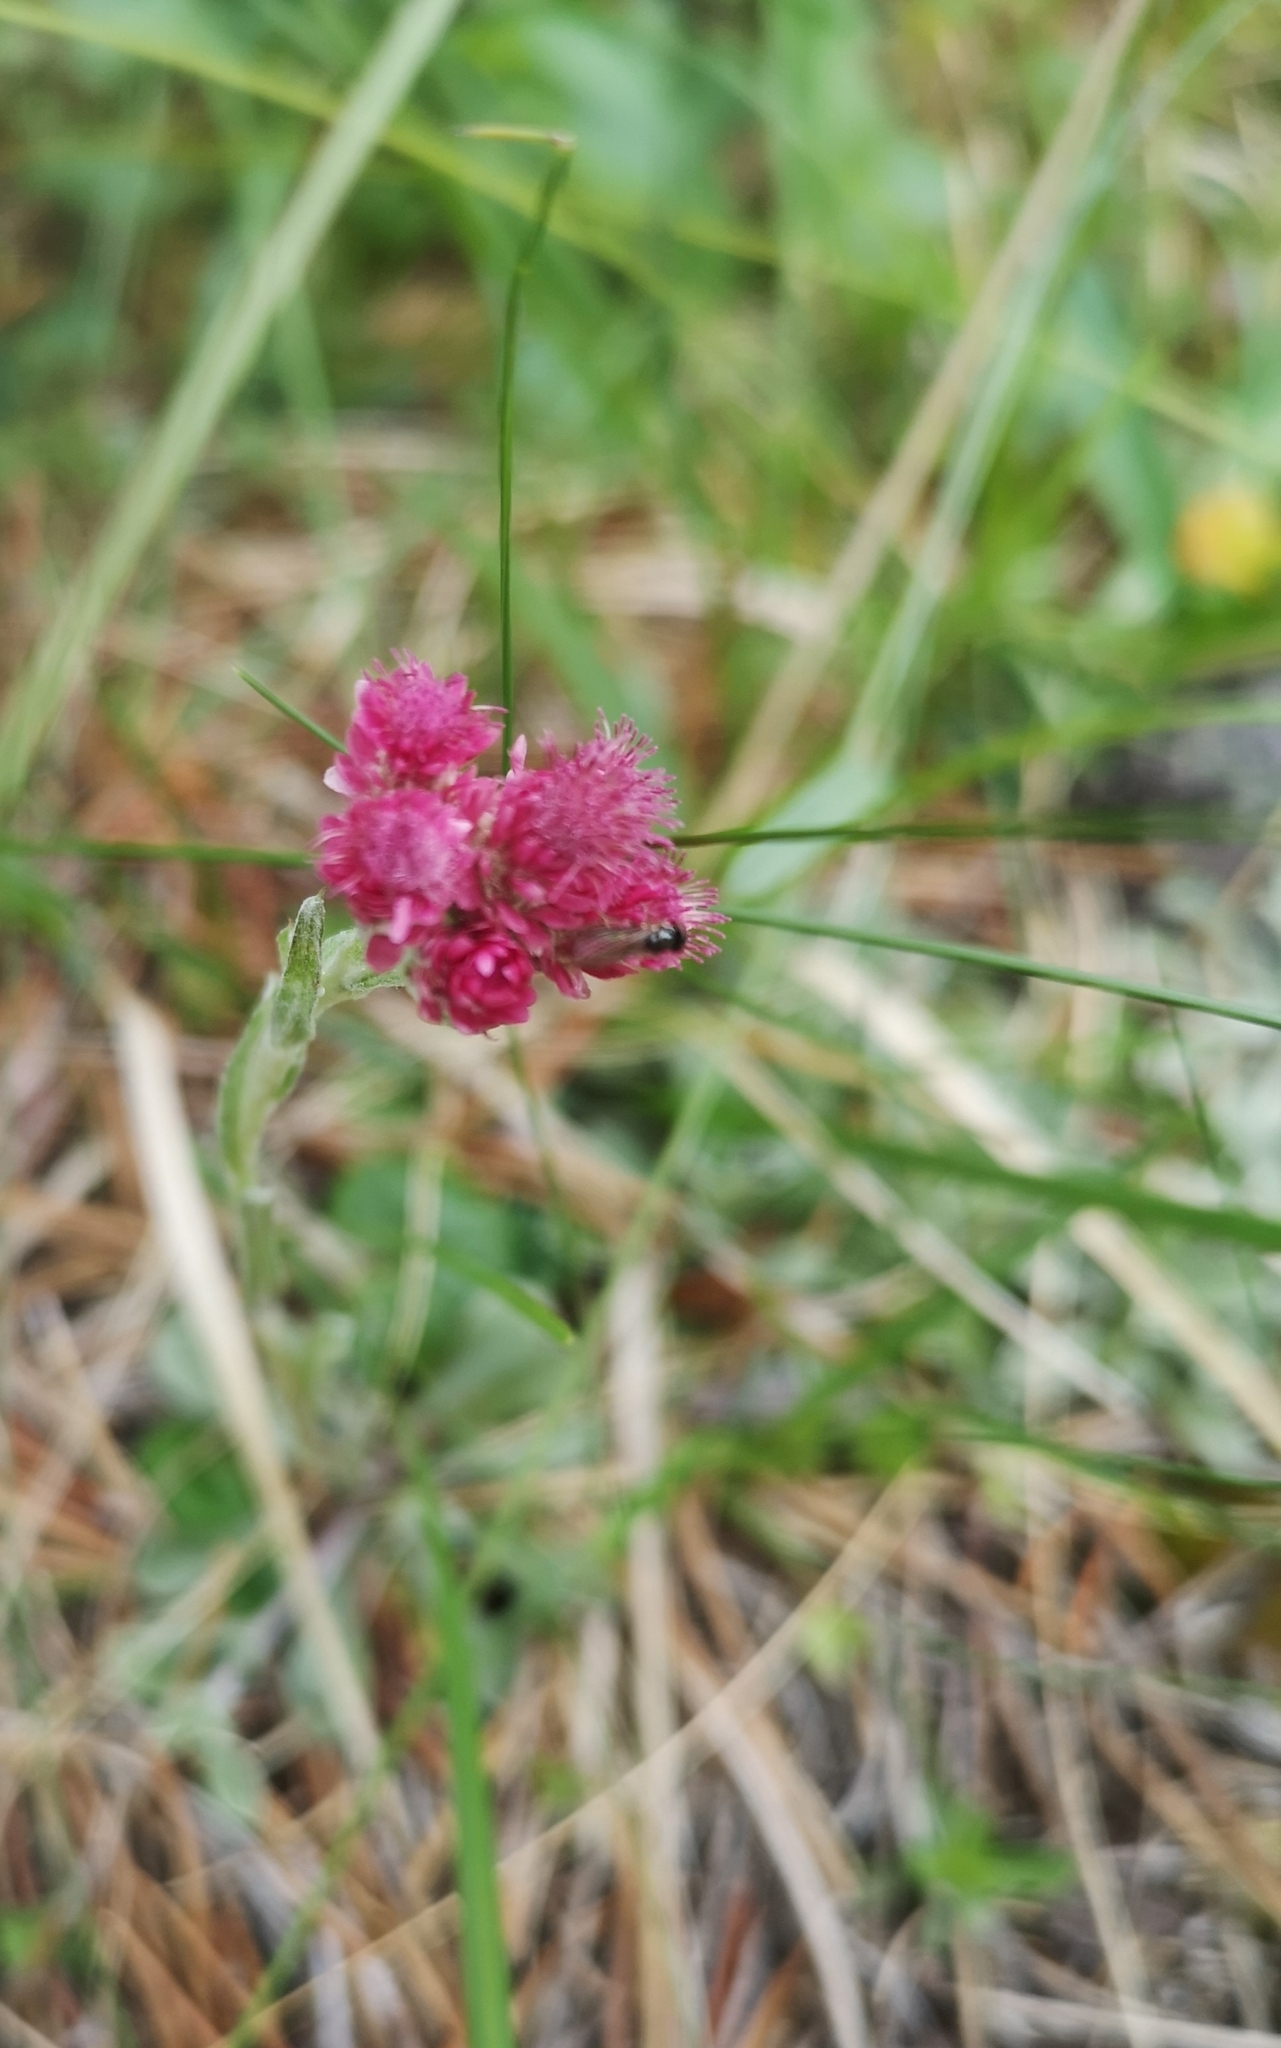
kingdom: Plantae
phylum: Tracheophyta
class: Magnoliopsida
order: Asterales
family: Asteraceae
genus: Antennaria
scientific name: Antennaria dioica
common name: Mountain everlasting
